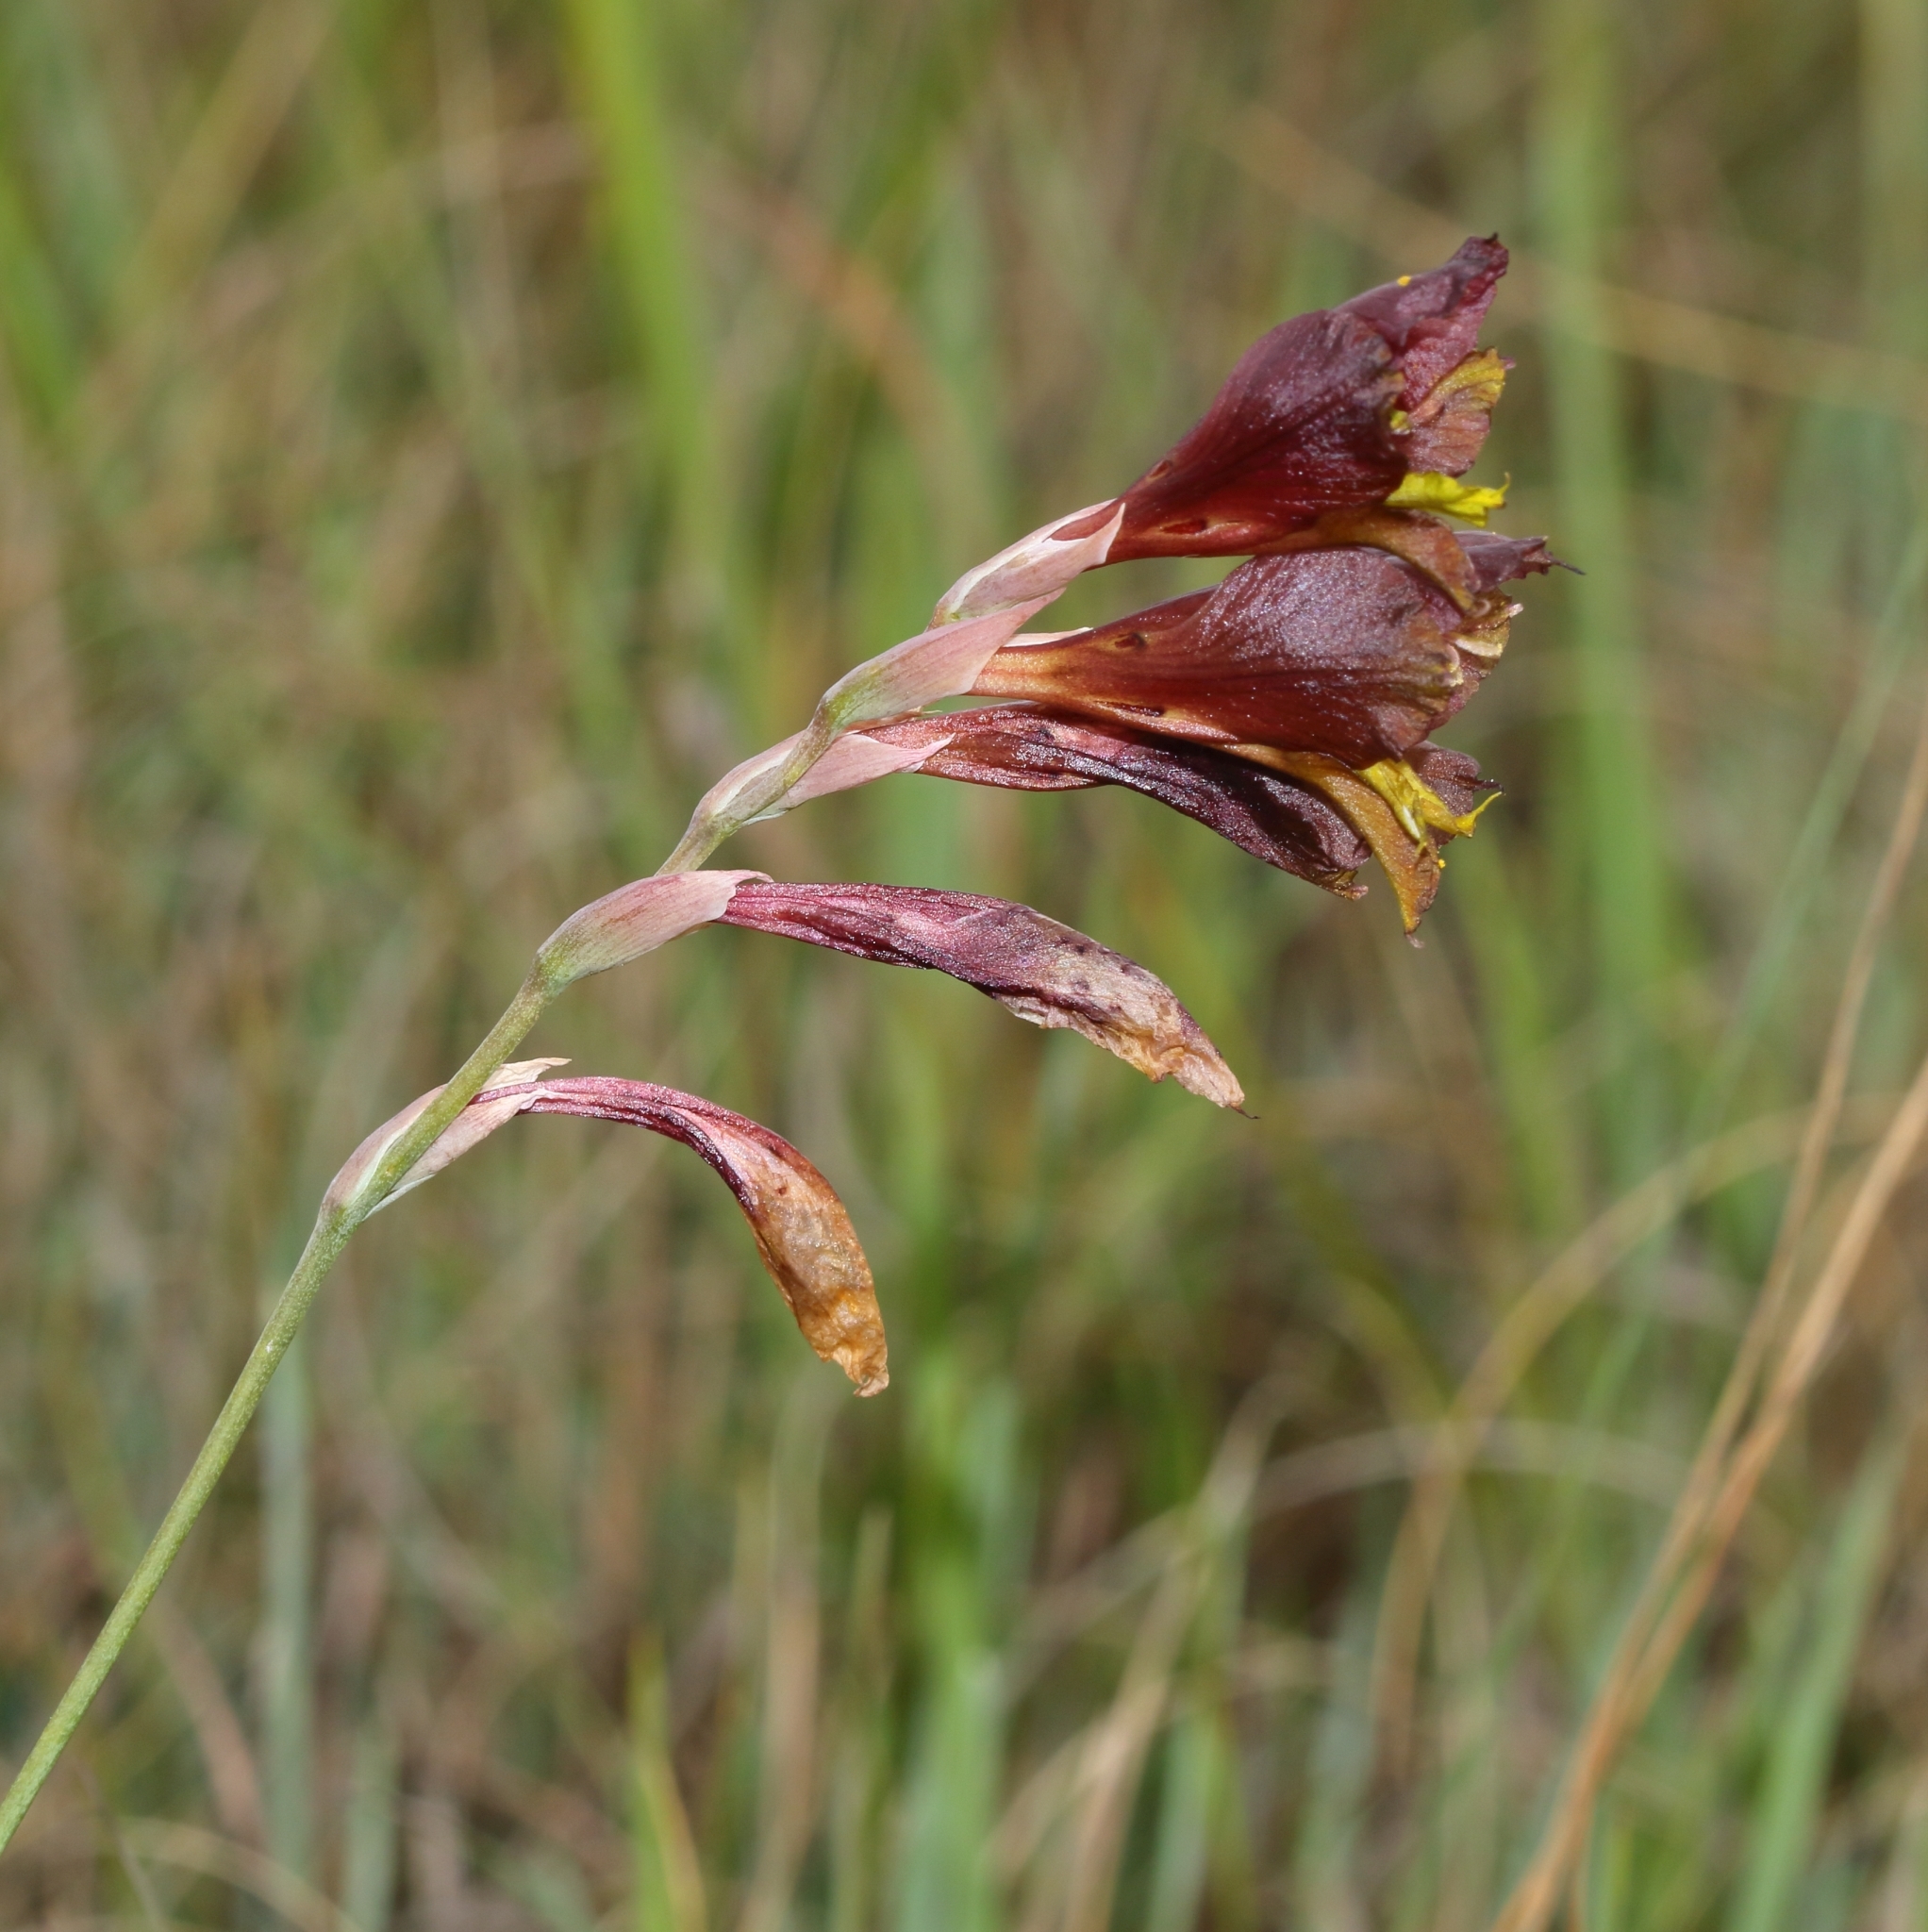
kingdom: Plantae
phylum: Tracheophyta
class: Liliopsida
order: Asparagales
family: Iridaceae
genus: Gladiolus
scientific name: Gladiolus woodii
